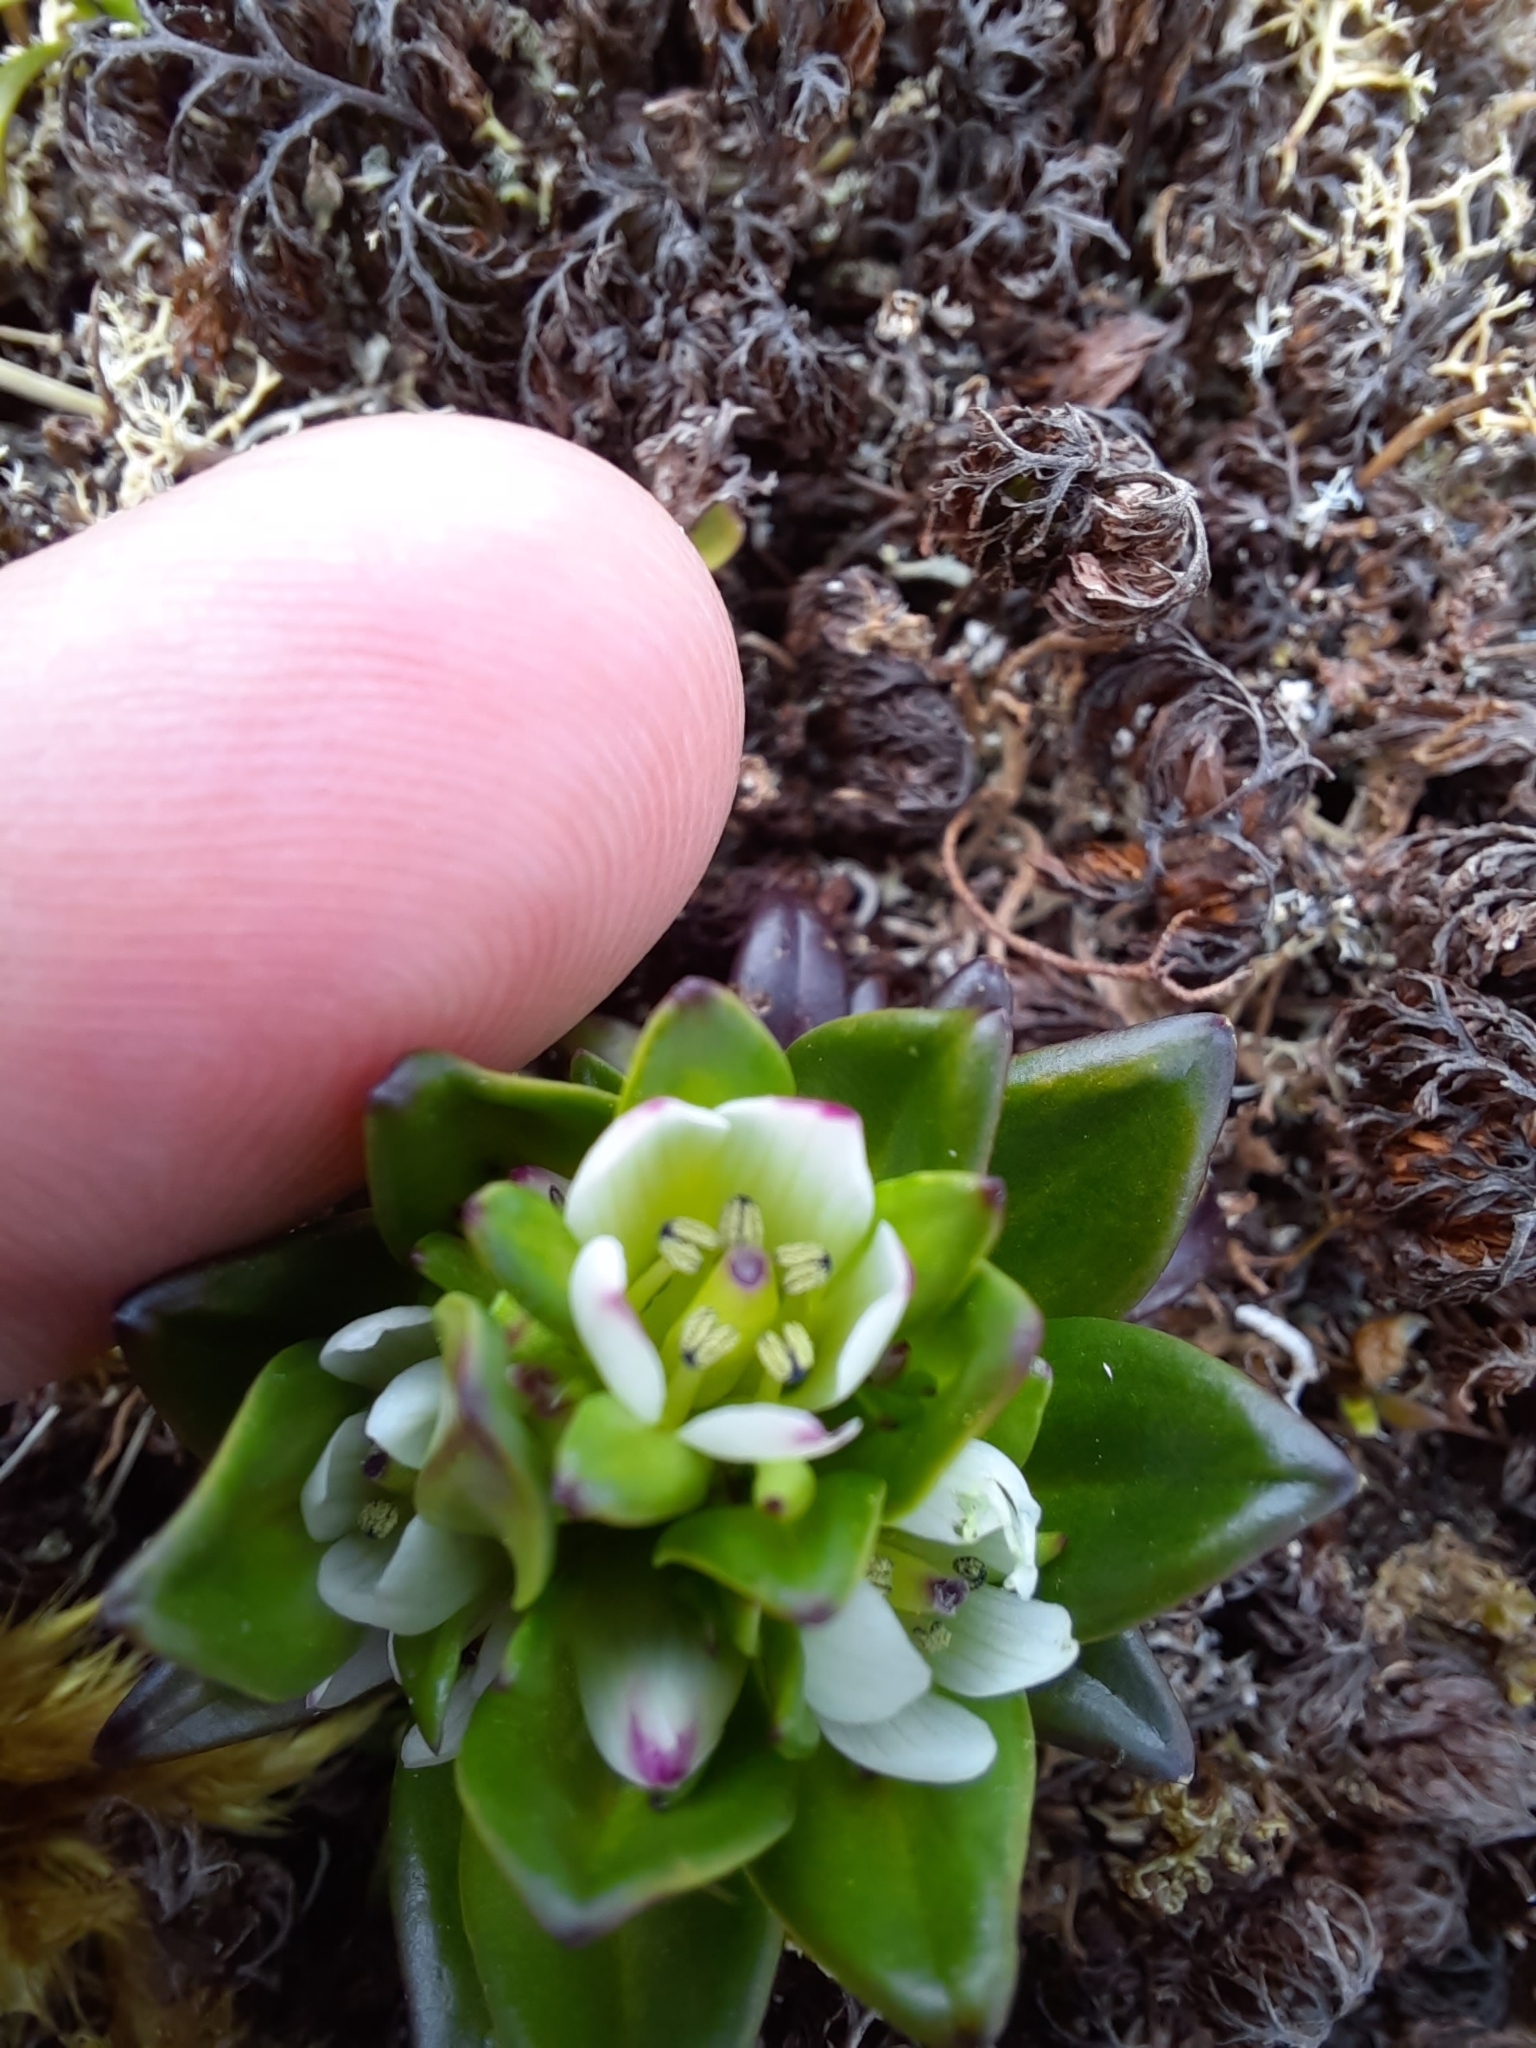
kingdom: Plantae
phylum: Tracheophyta
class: Magnoliopsida
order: Gentianales
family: Gentianaceae
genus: Gentianella
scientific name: Gentianella antarctica
